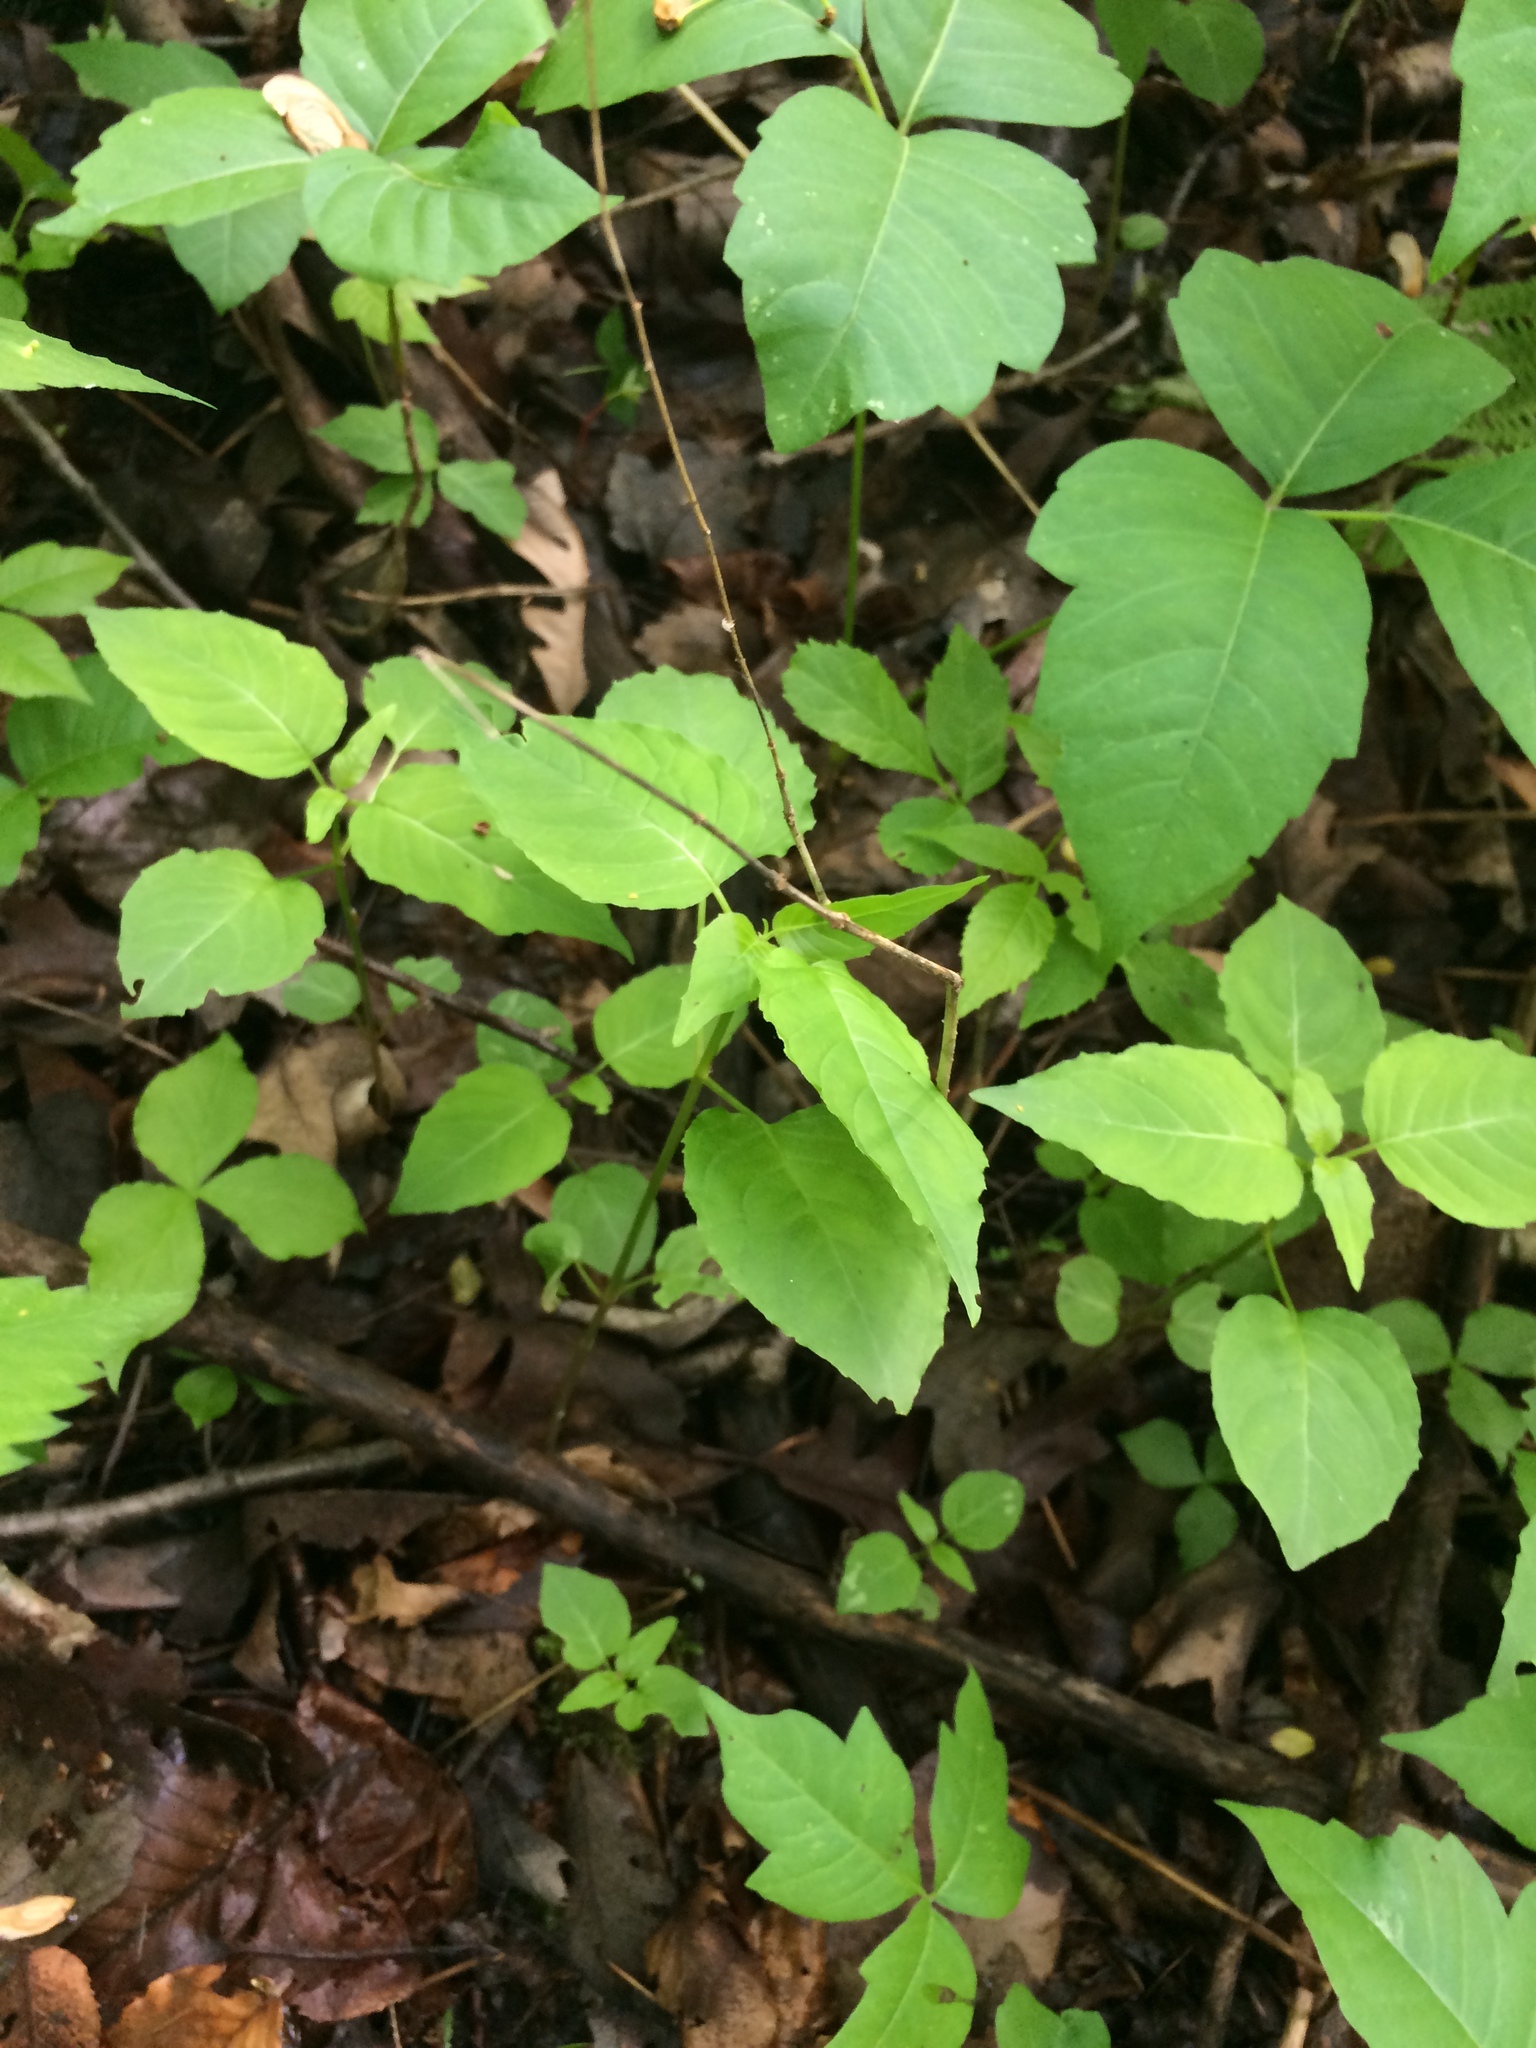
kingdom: Plantae
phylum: Tracheophyta
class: Magnoliopsida
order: Myrtales
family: Onagraceae
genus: Circaea
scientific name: Circaea canadensis
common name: Broad-leaved enchanter's nightshade
